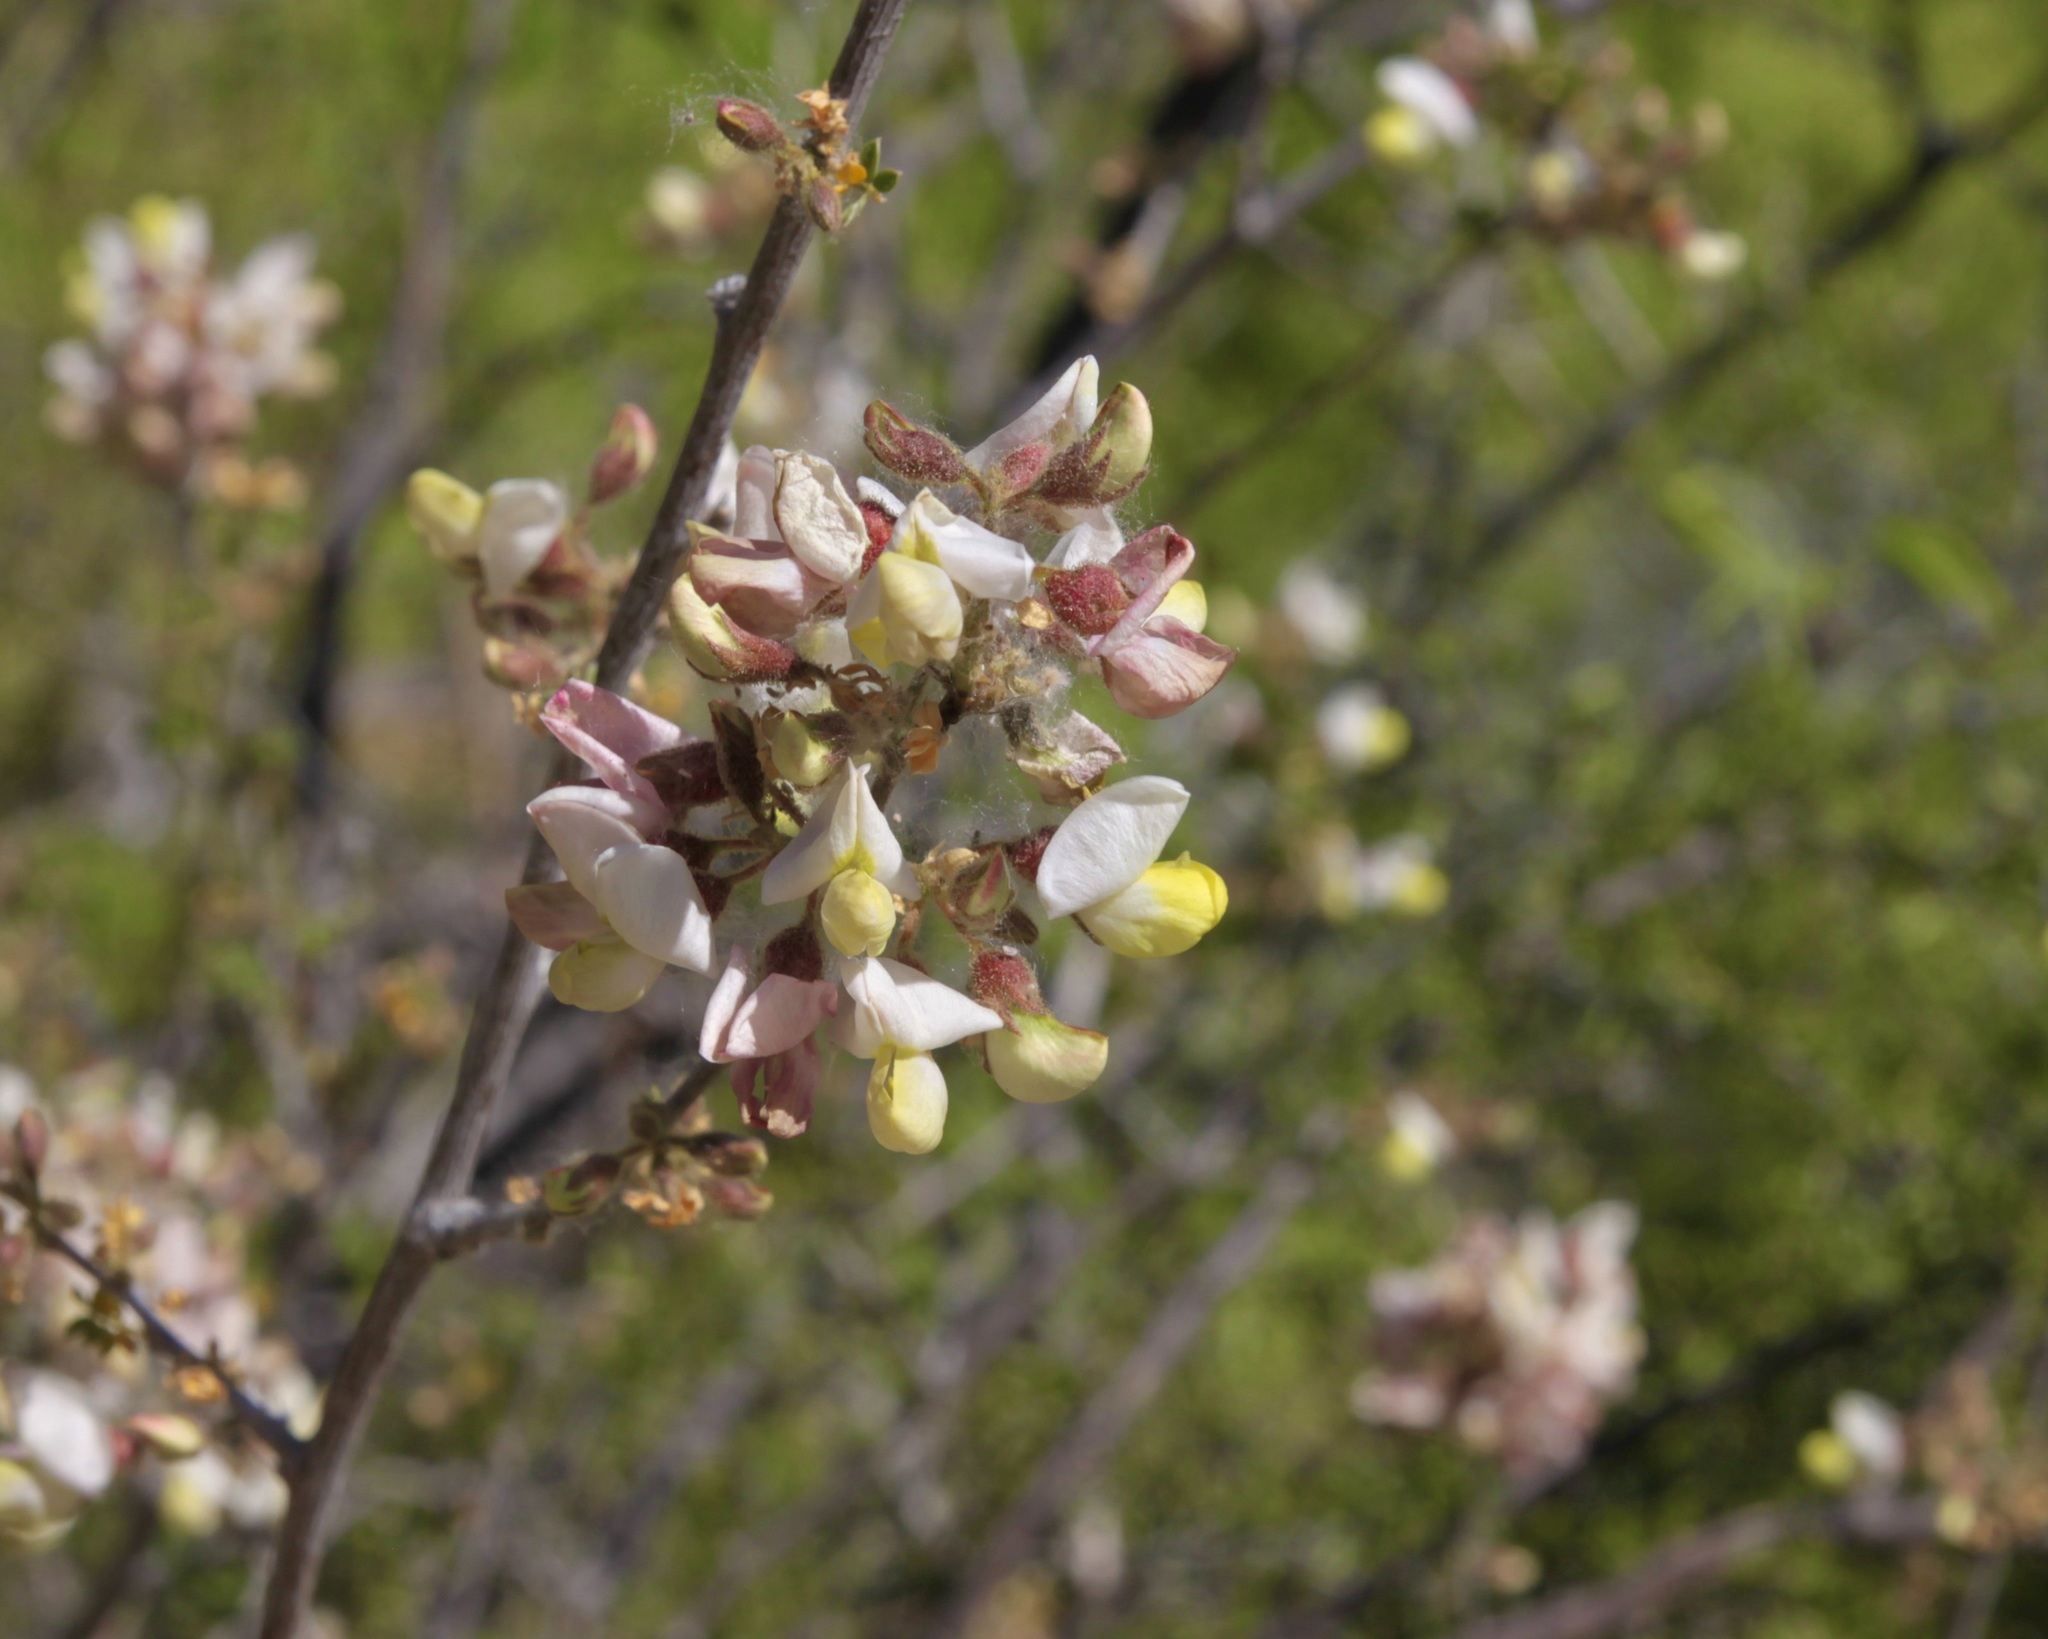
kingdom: Plantae
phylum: Tracheophyta
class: Magnoliopsida
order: Fabales
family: Fabaceae
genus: Coursetia
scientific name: Coursetia glandulosa
